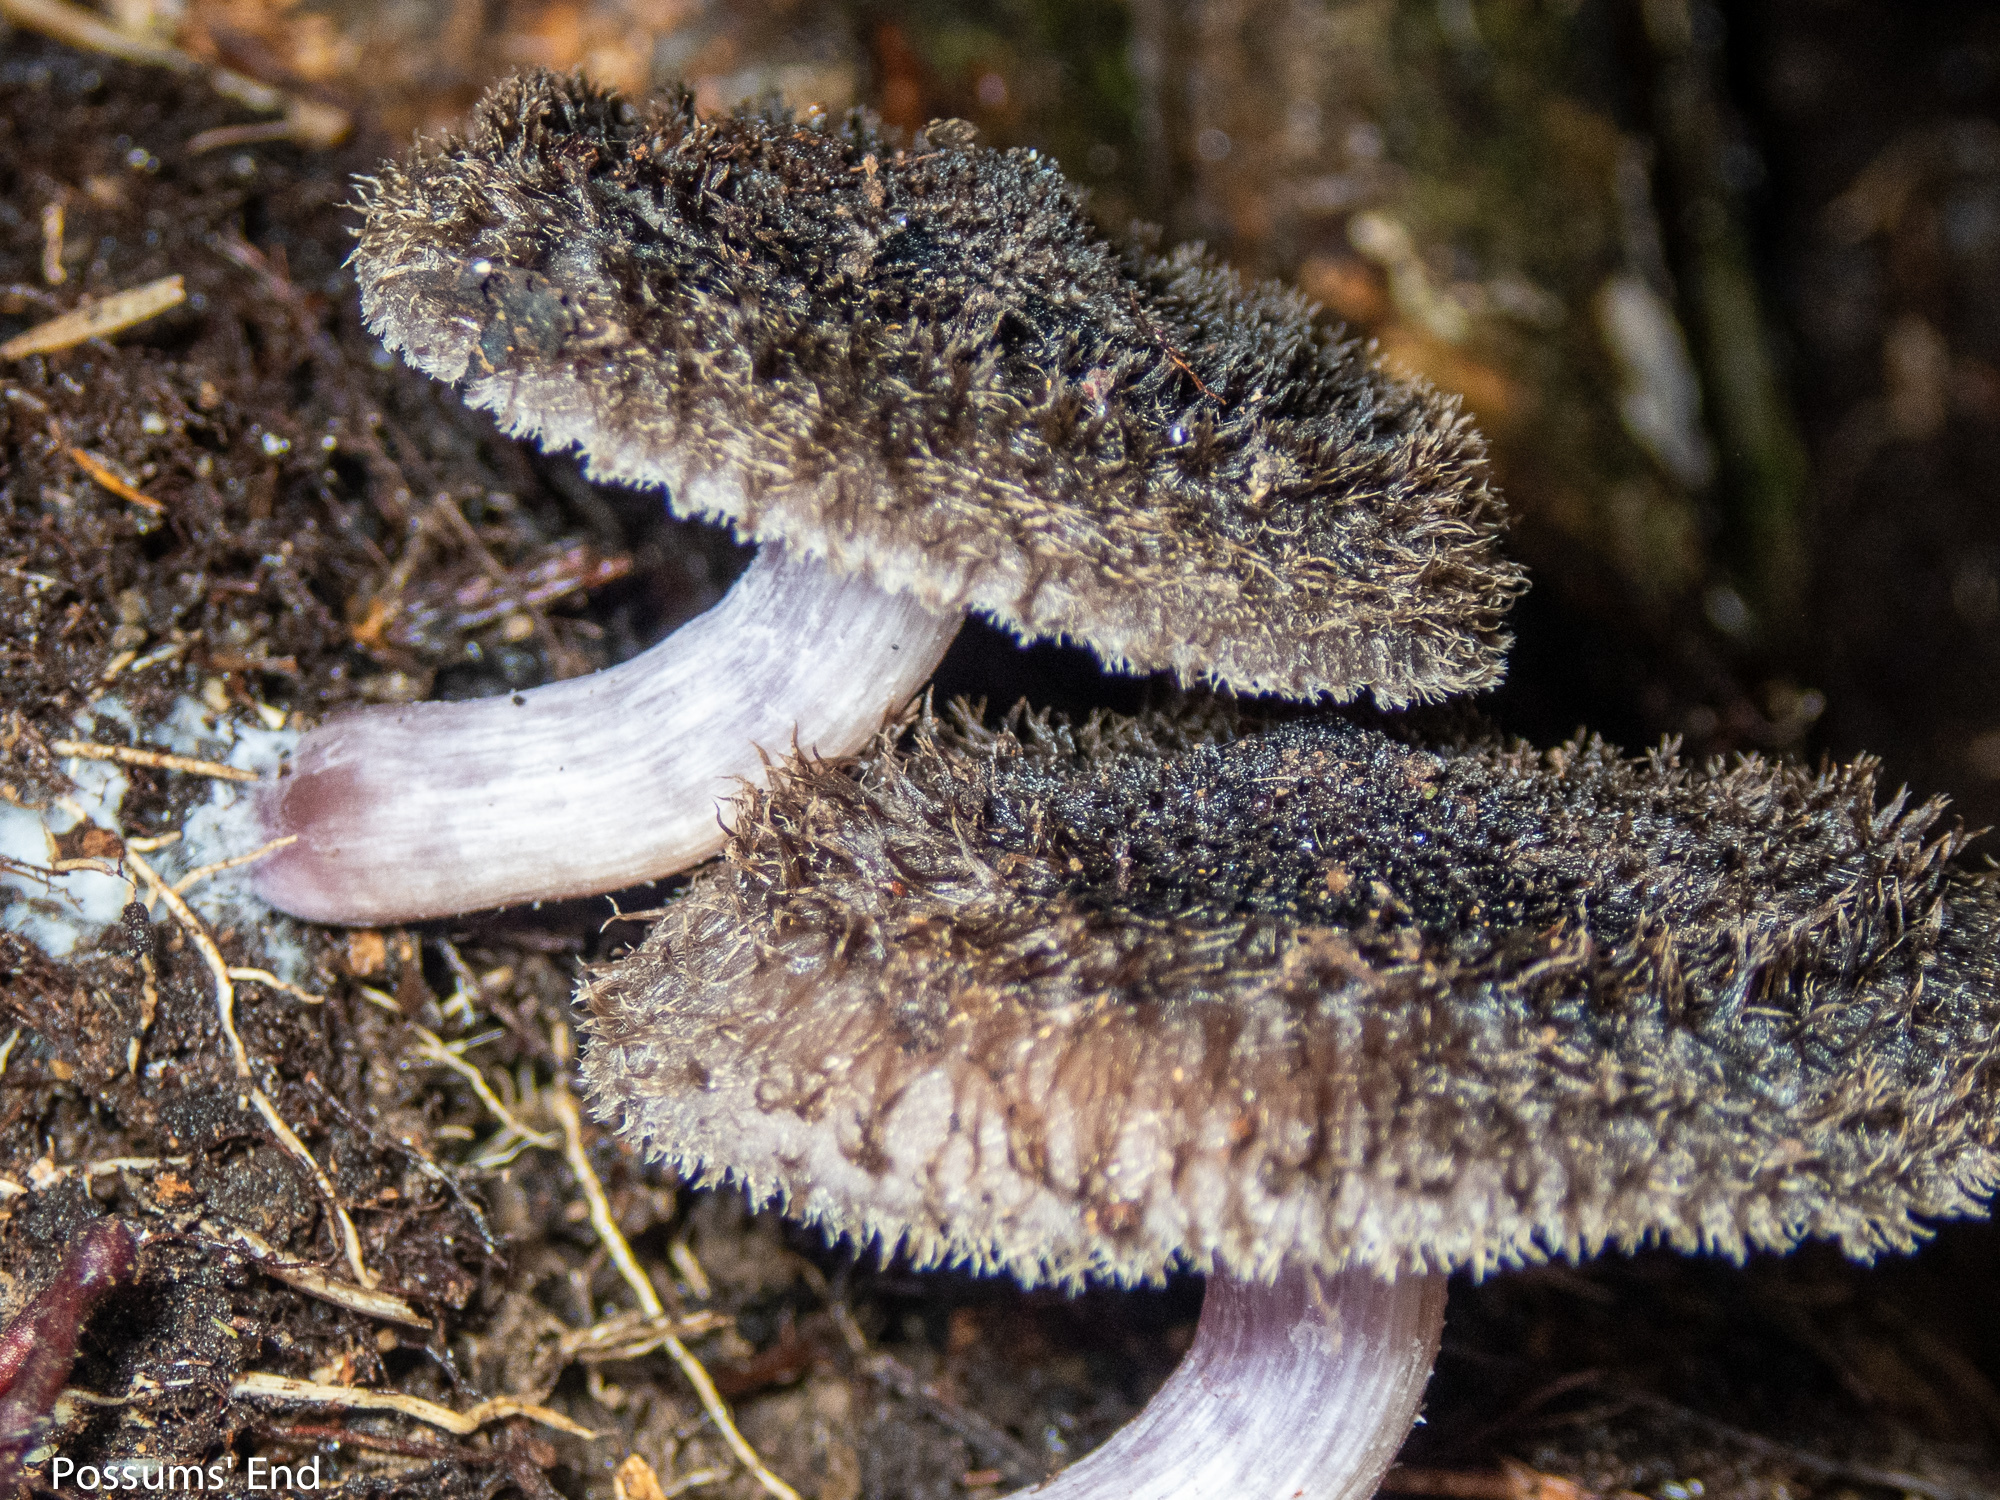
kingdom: Fungi
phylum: Basidiomycota
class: Agaricomycetes
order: Agaricales
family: Tricholomataceae
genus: Collybia
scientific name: Collybia
